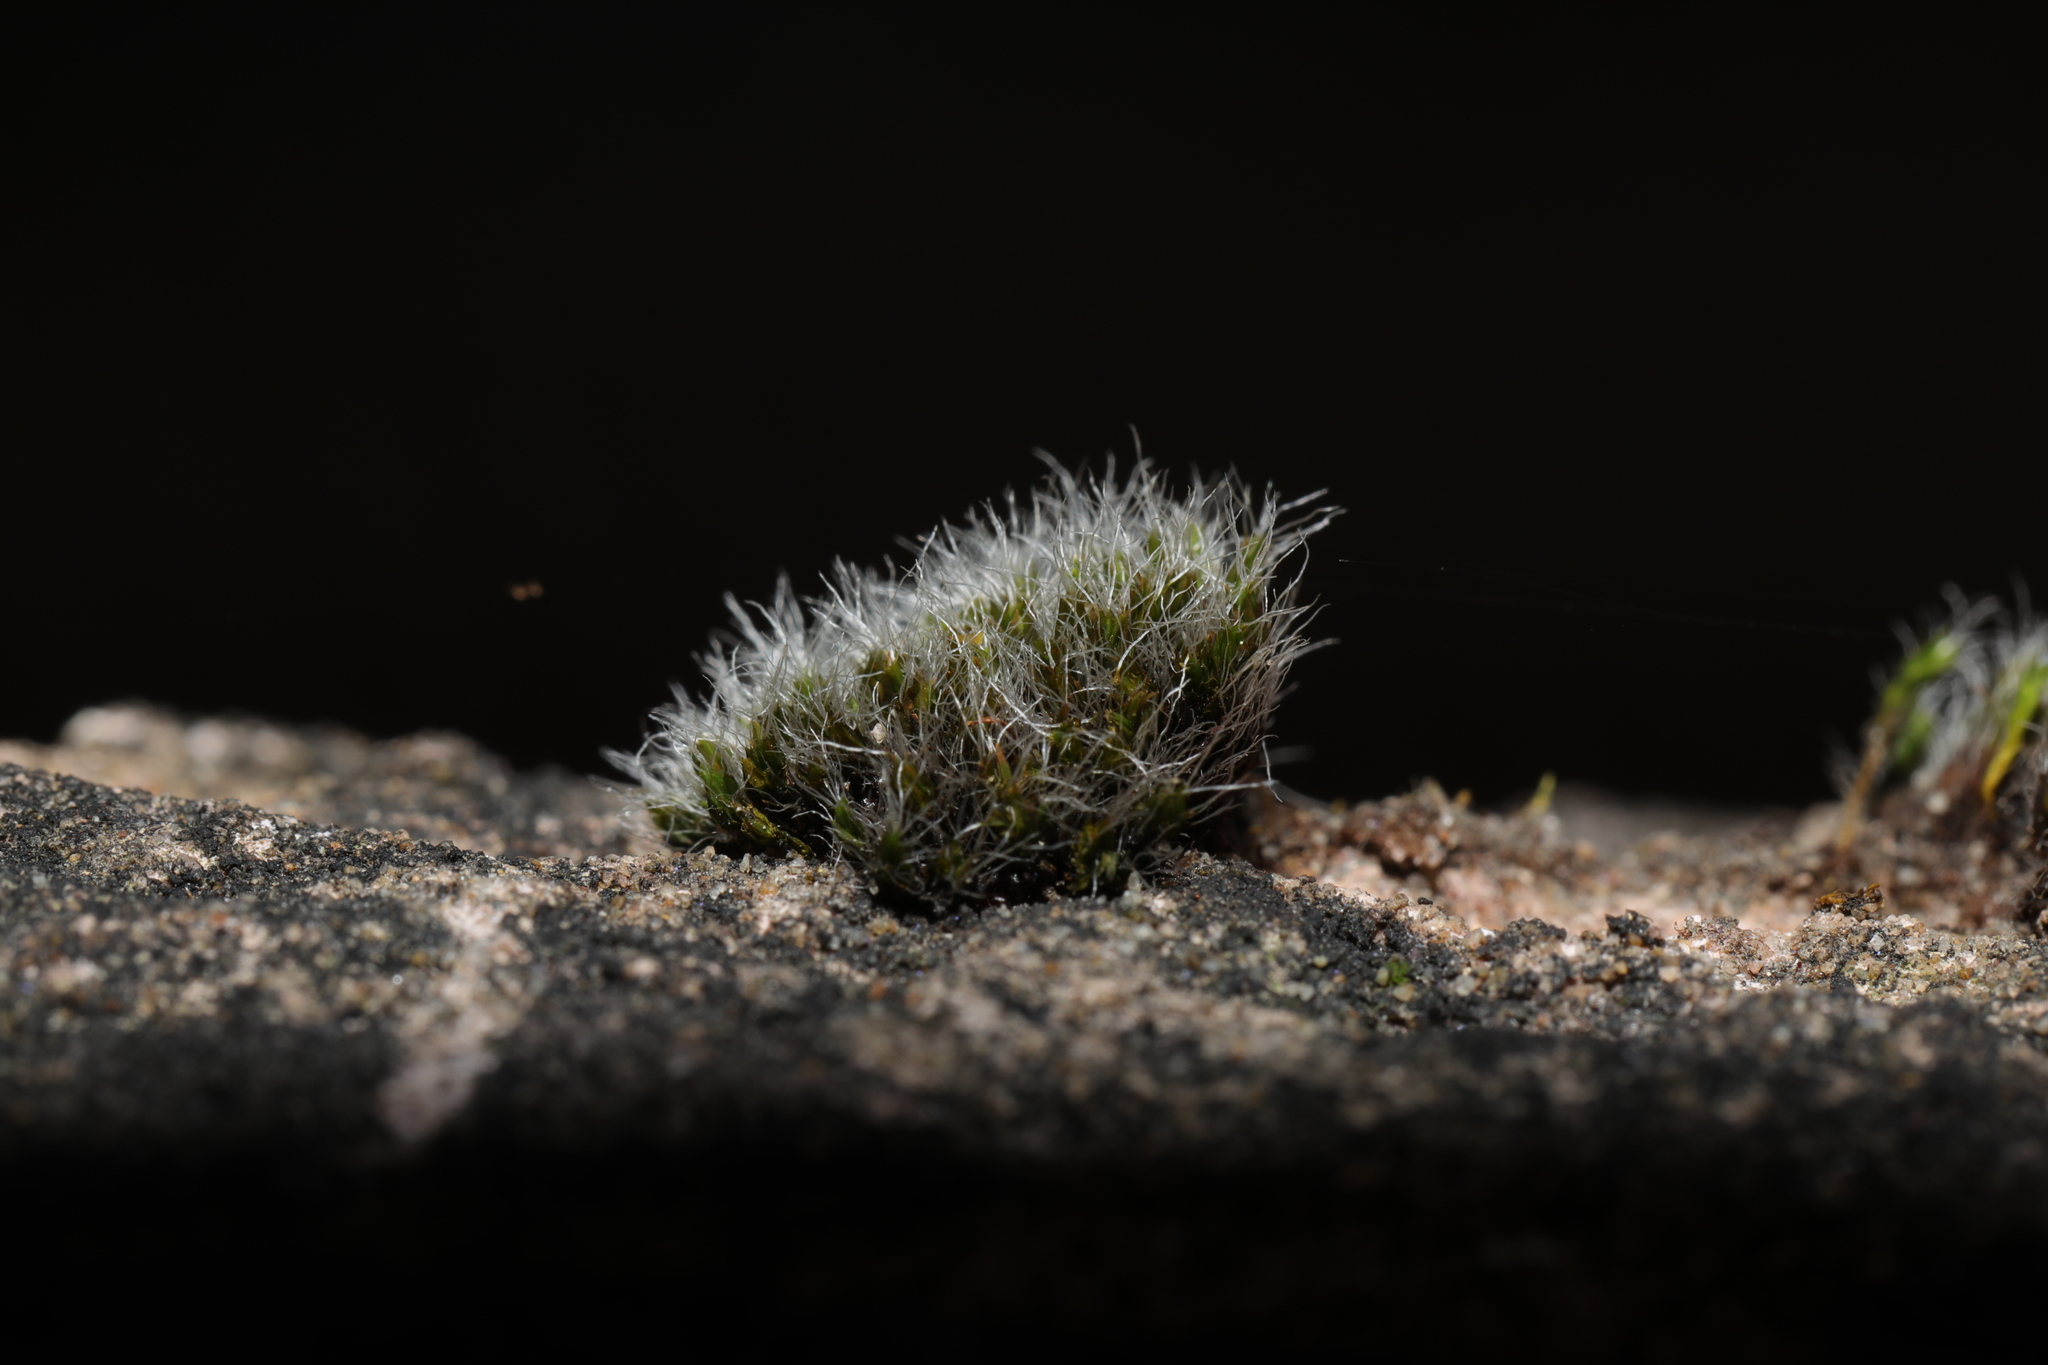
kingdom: Plantae
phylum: Bryophyta
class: Bryopsida
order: Grimmiales
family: Grimmiaceae
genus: Grimmia
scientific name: Grimmia pulvinata
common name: Grey-cushioned grimmia
